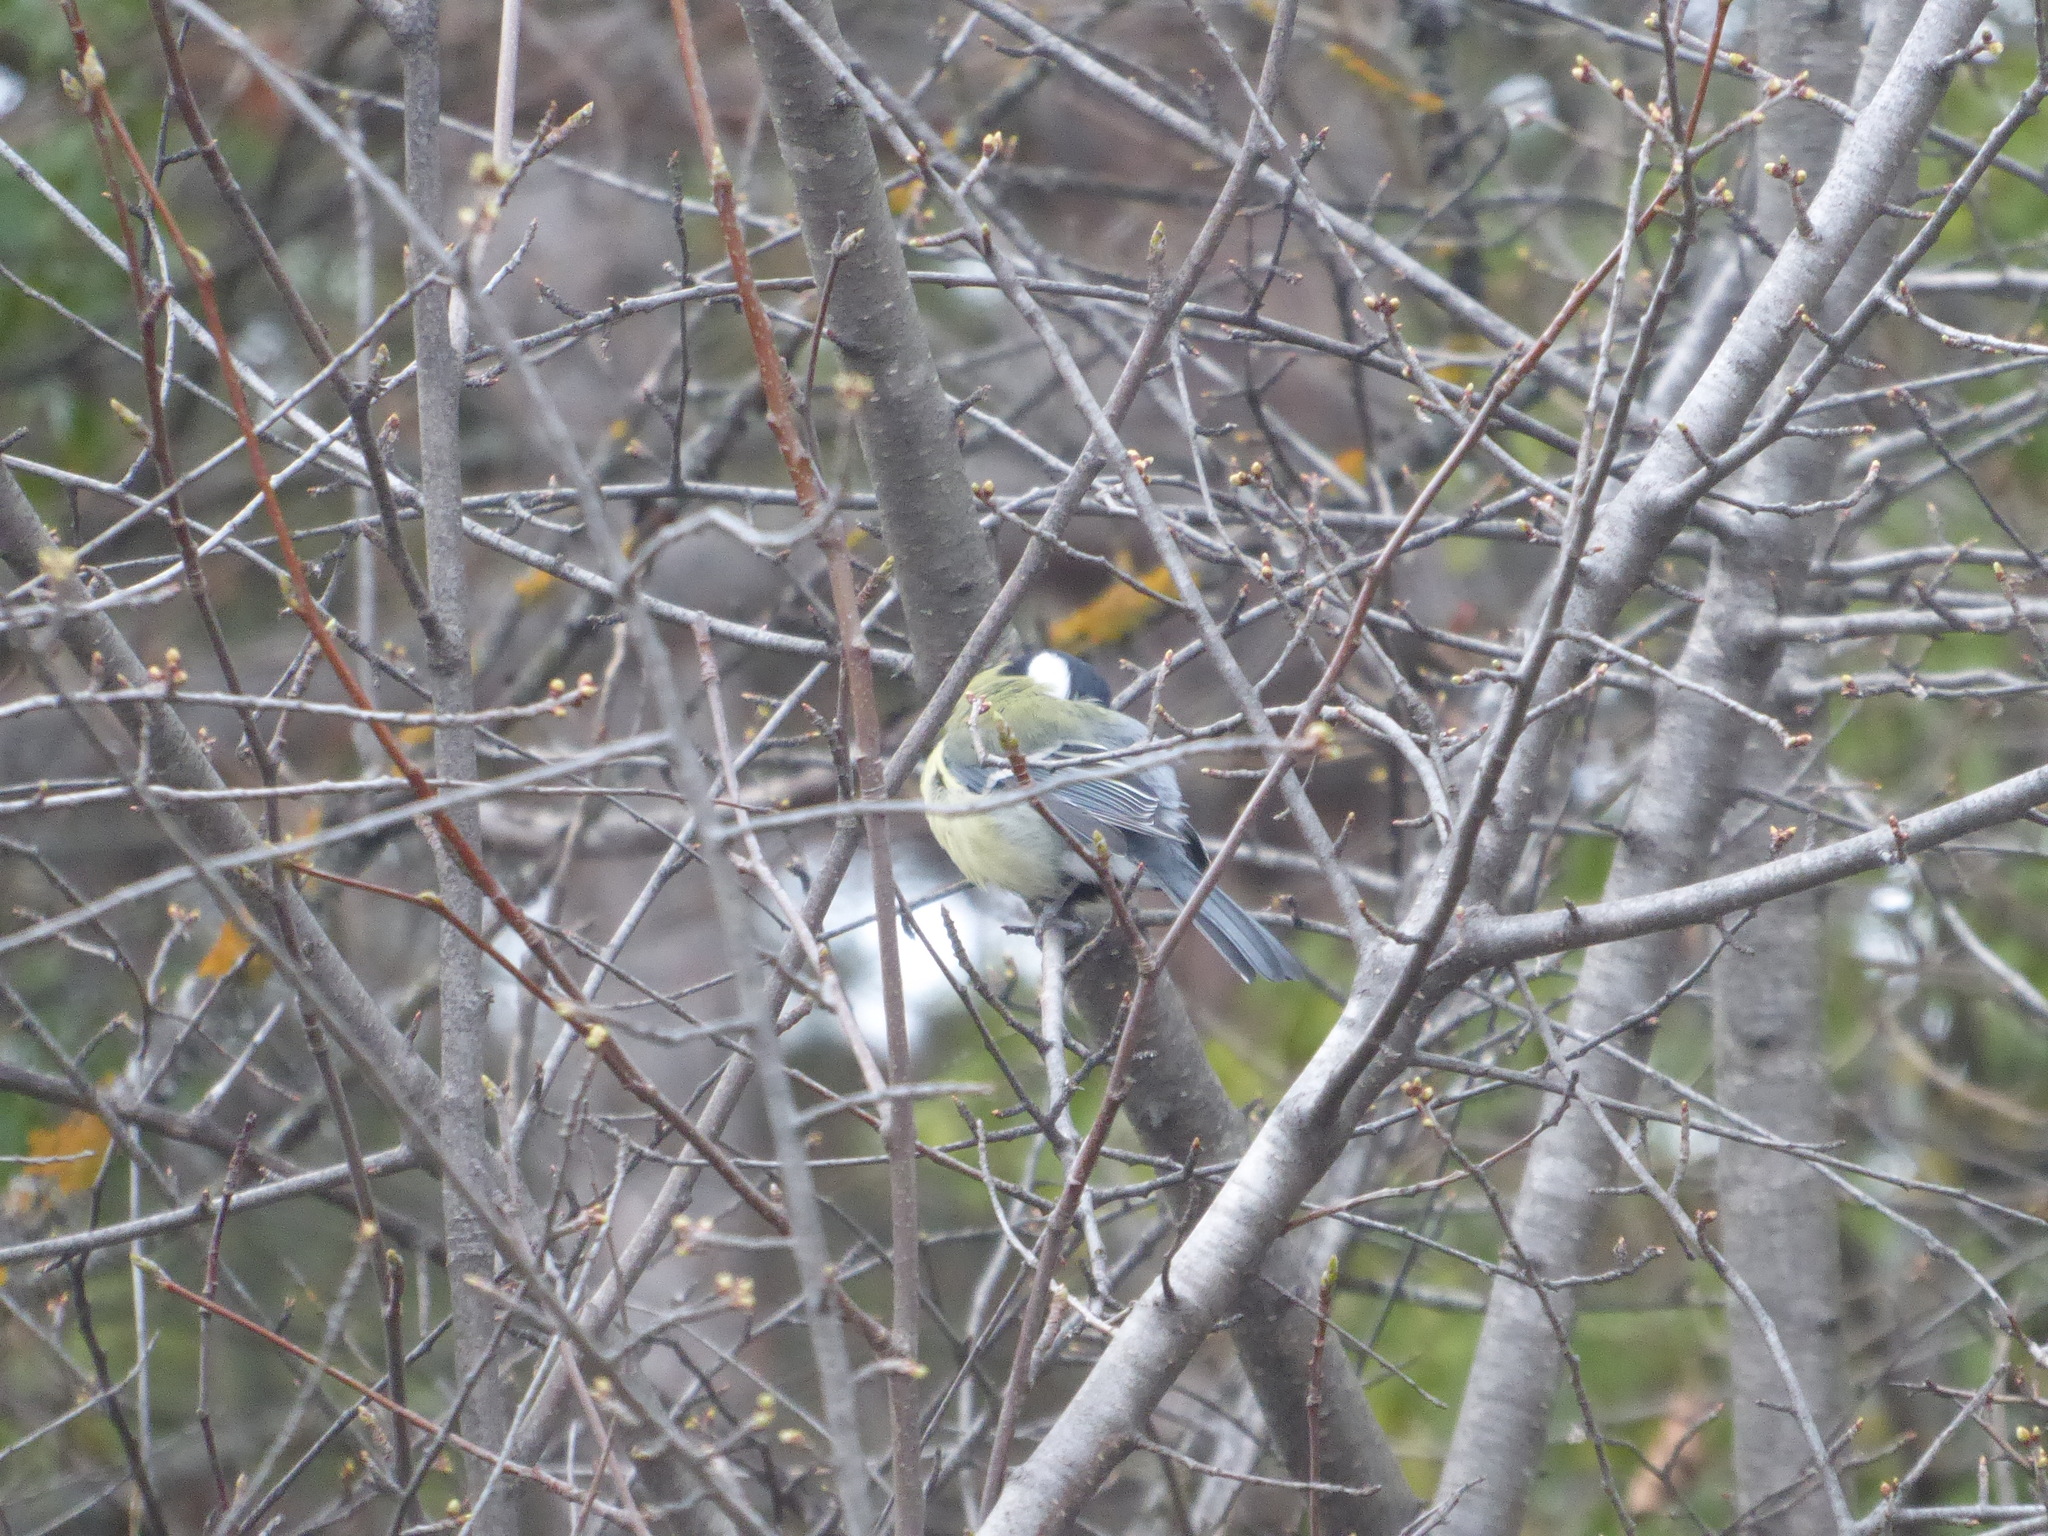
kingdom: Animalia
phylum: Chordata
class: Aves
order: Passeriformes
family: Paridae
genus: Parus
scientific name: Parus major
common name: Great tit
